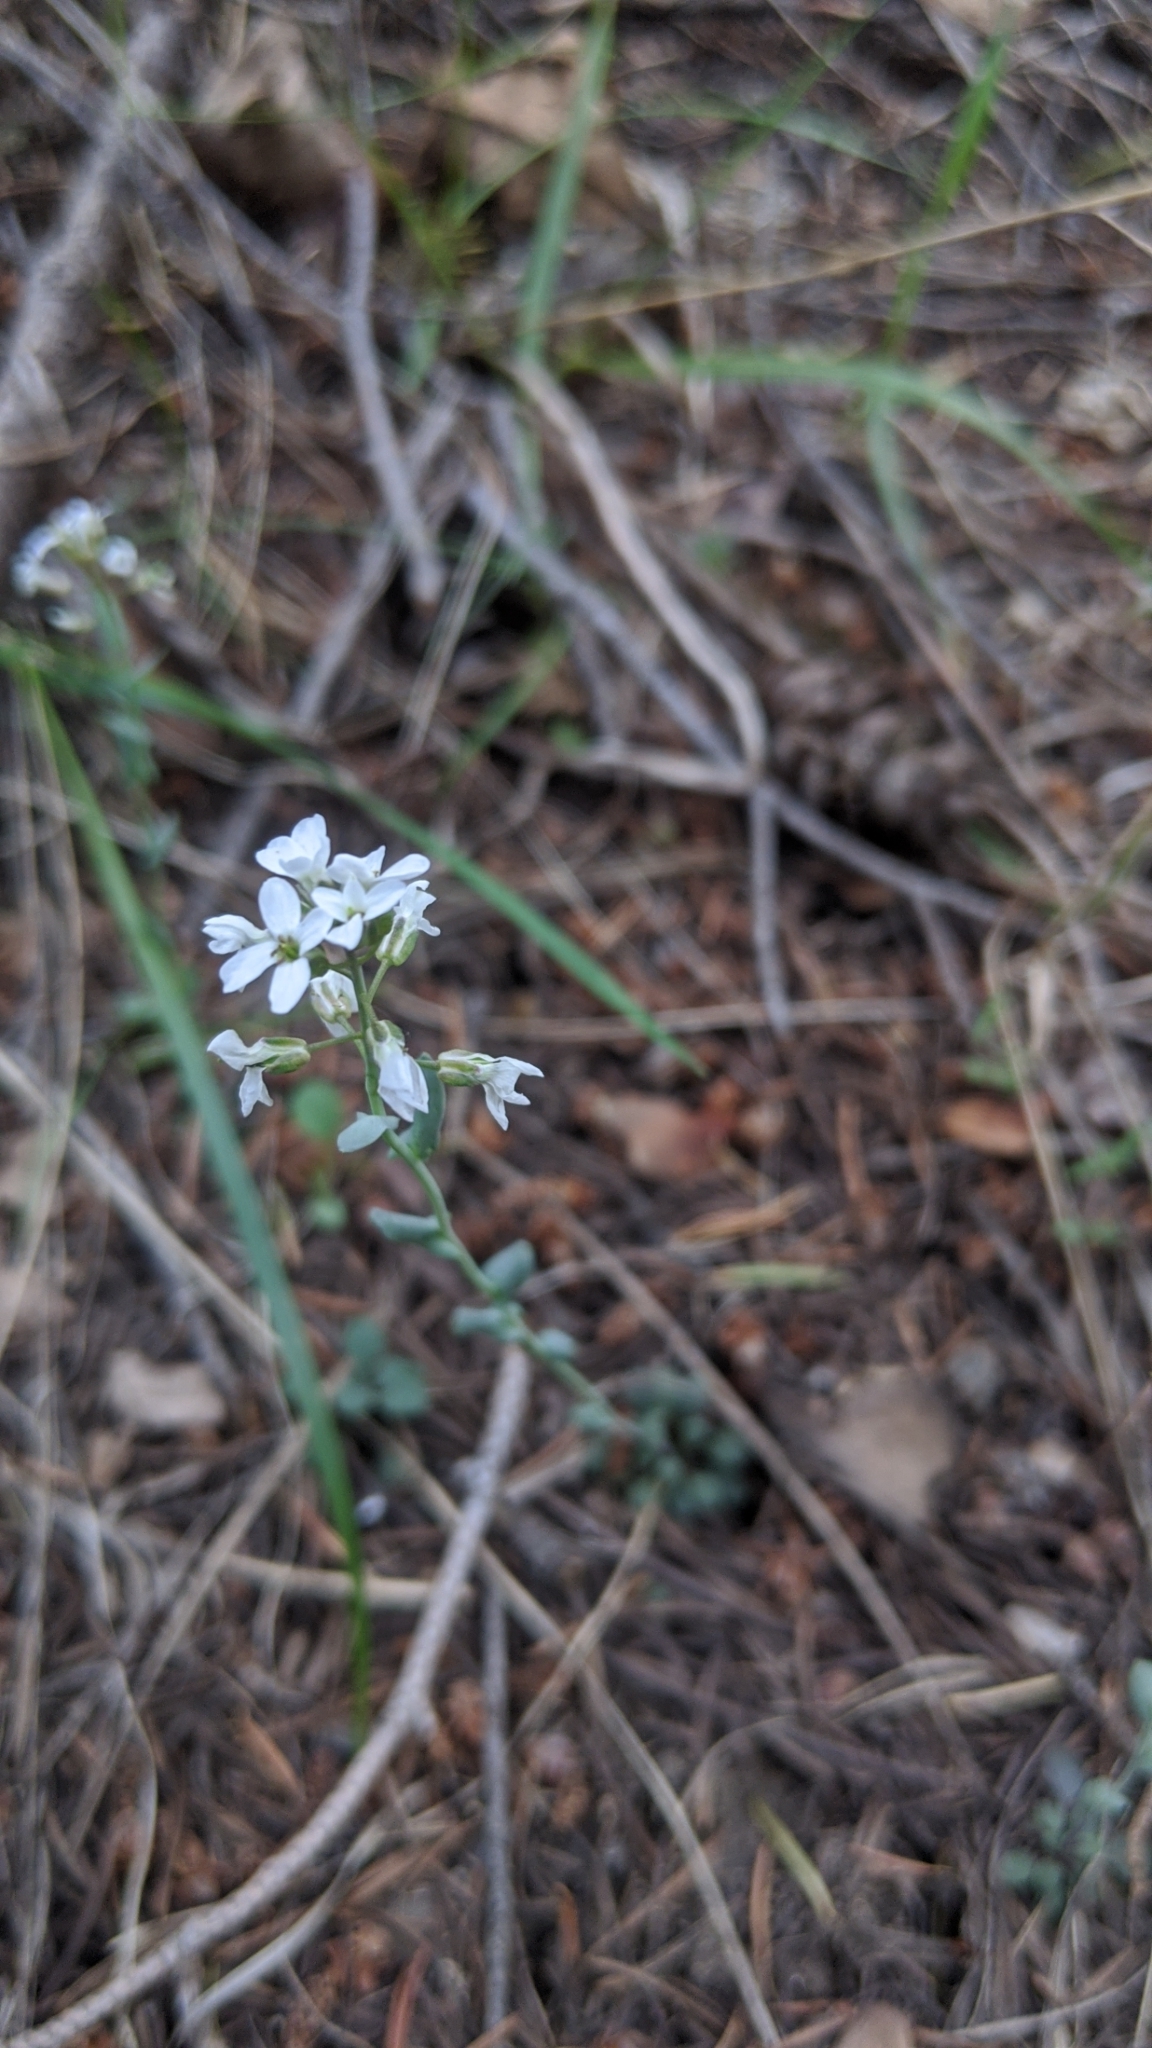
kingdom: Plantae
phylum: Tracheophyta
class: Magnoliopsida
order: Brassicales
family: Brassicaceae
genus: Noccaea
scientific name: Noccaea fendleri
